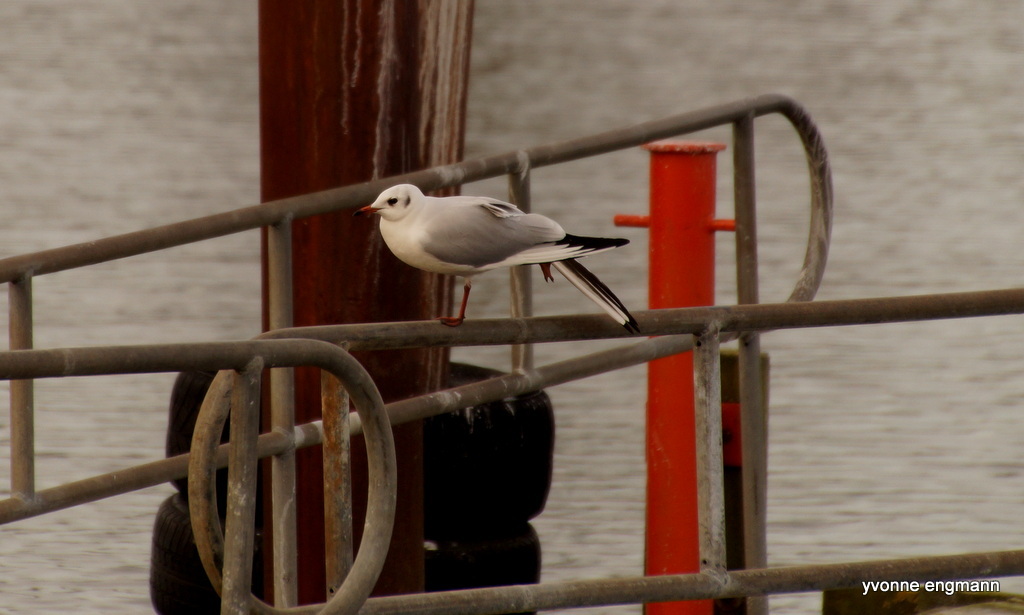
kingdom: Animalia
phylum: Chordata
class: Aves
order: Charadriiformes
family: Laridae
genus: Chroicocephalus
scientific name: Chroicocephalus ridibundus
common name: Black-headed gull
